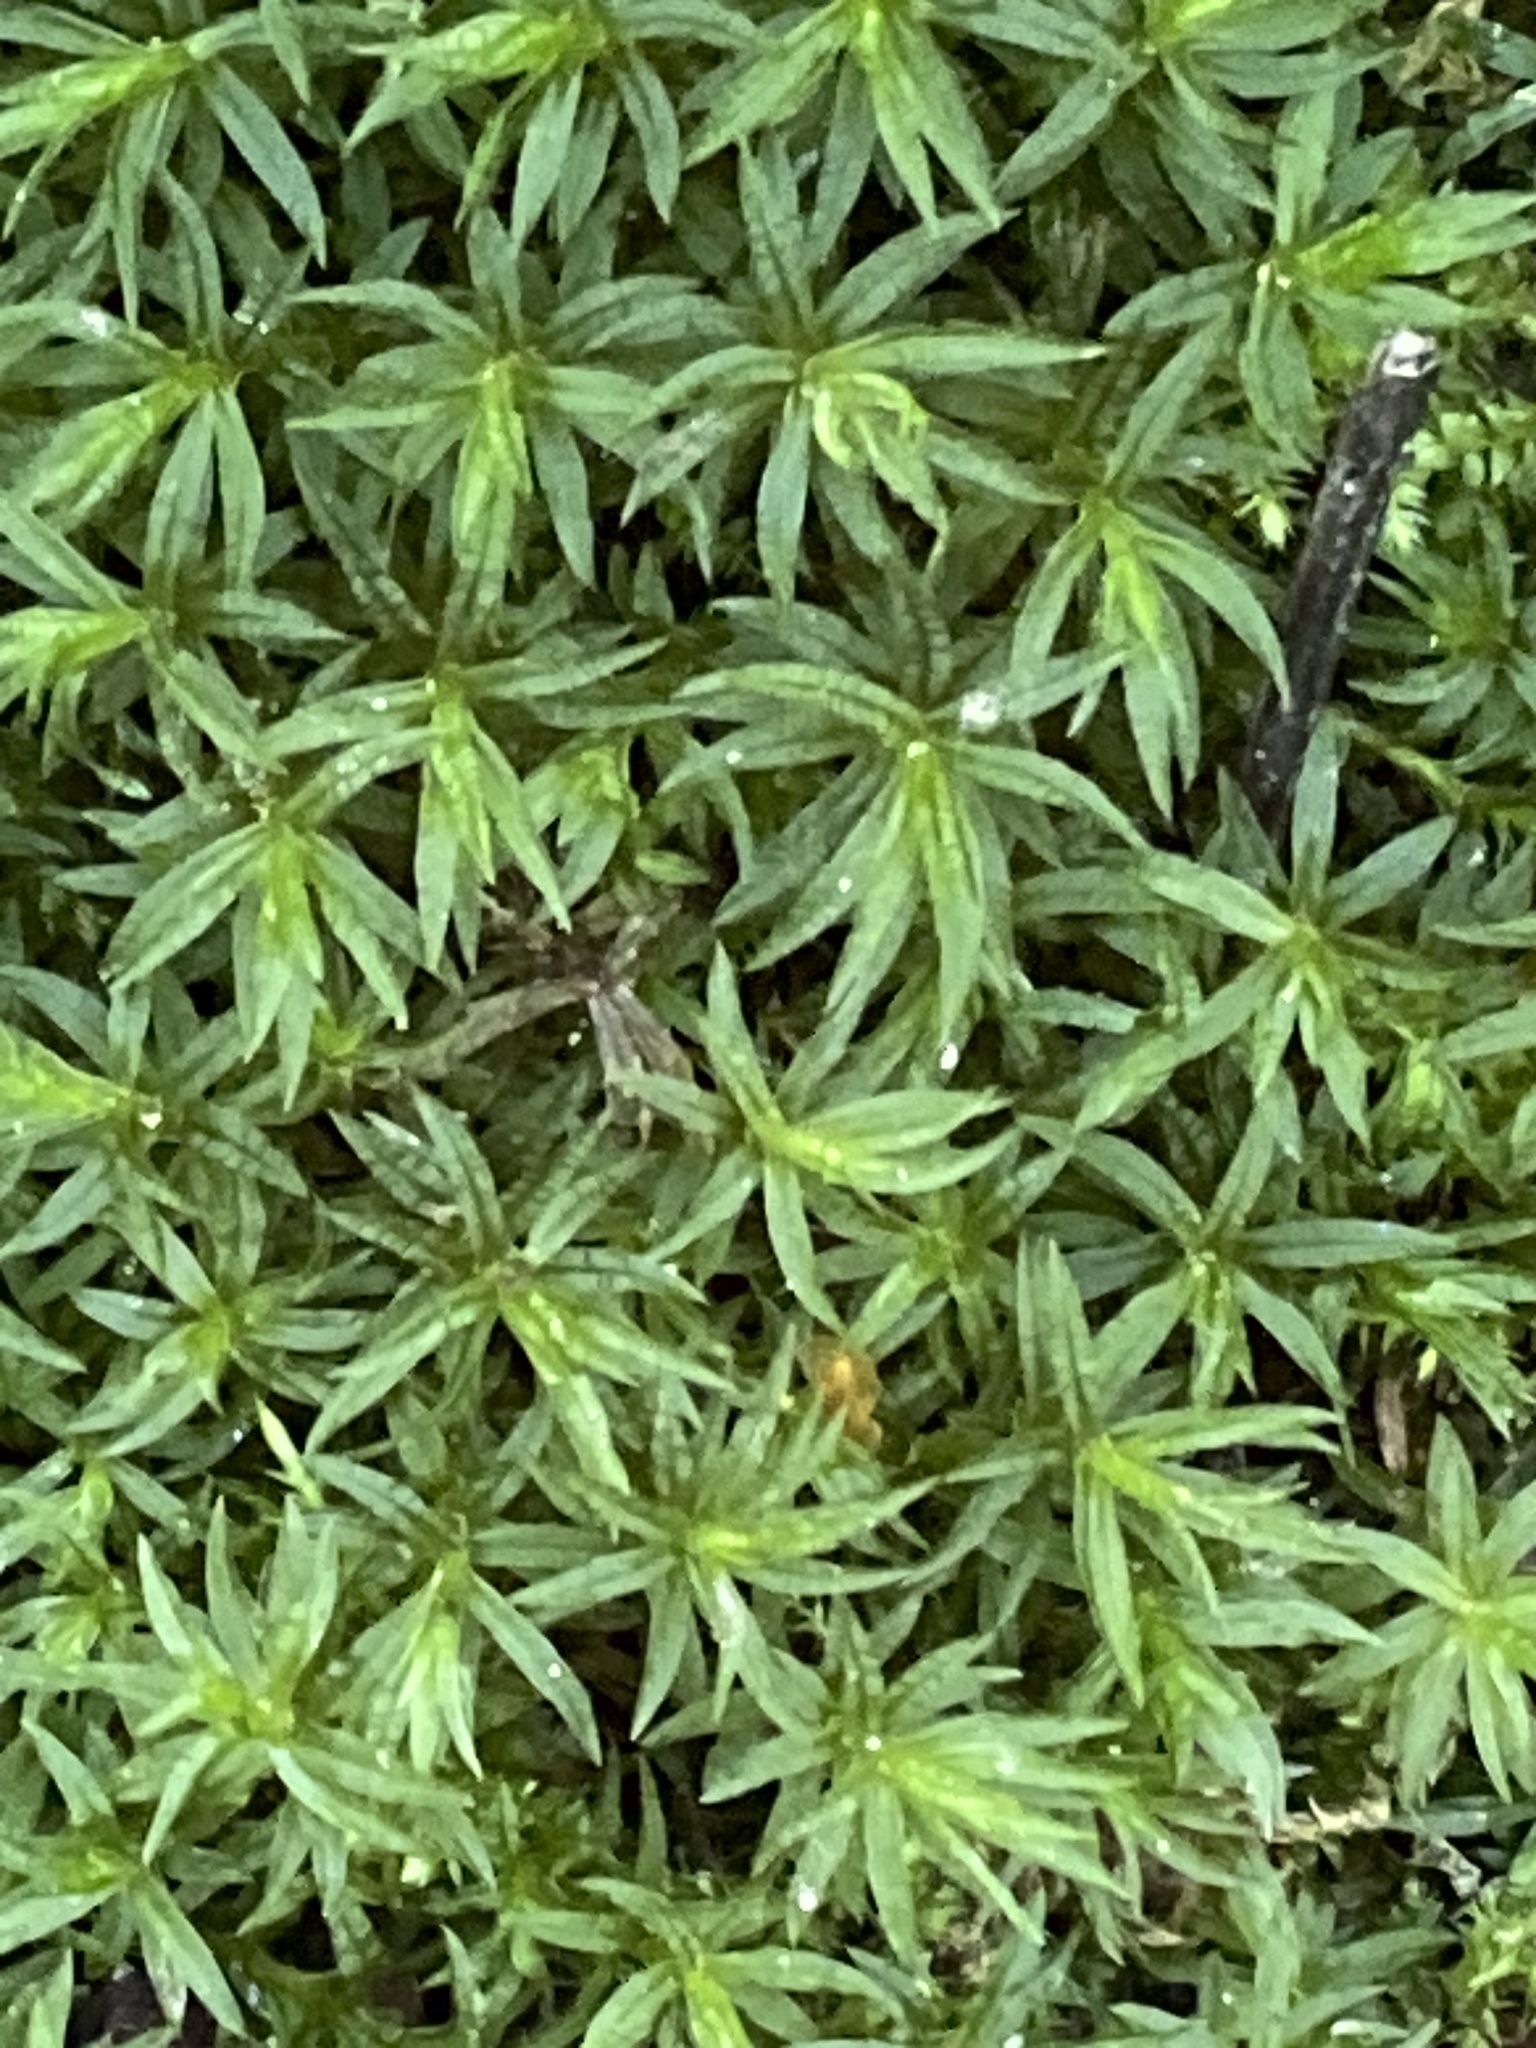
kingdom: Plantae
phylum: Bryophyta
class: Polytrichopsida
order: Polytrichales
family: Polytrichaceae
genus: Atrichum
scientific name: Atrichum undulatum
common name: Common smoothcap
